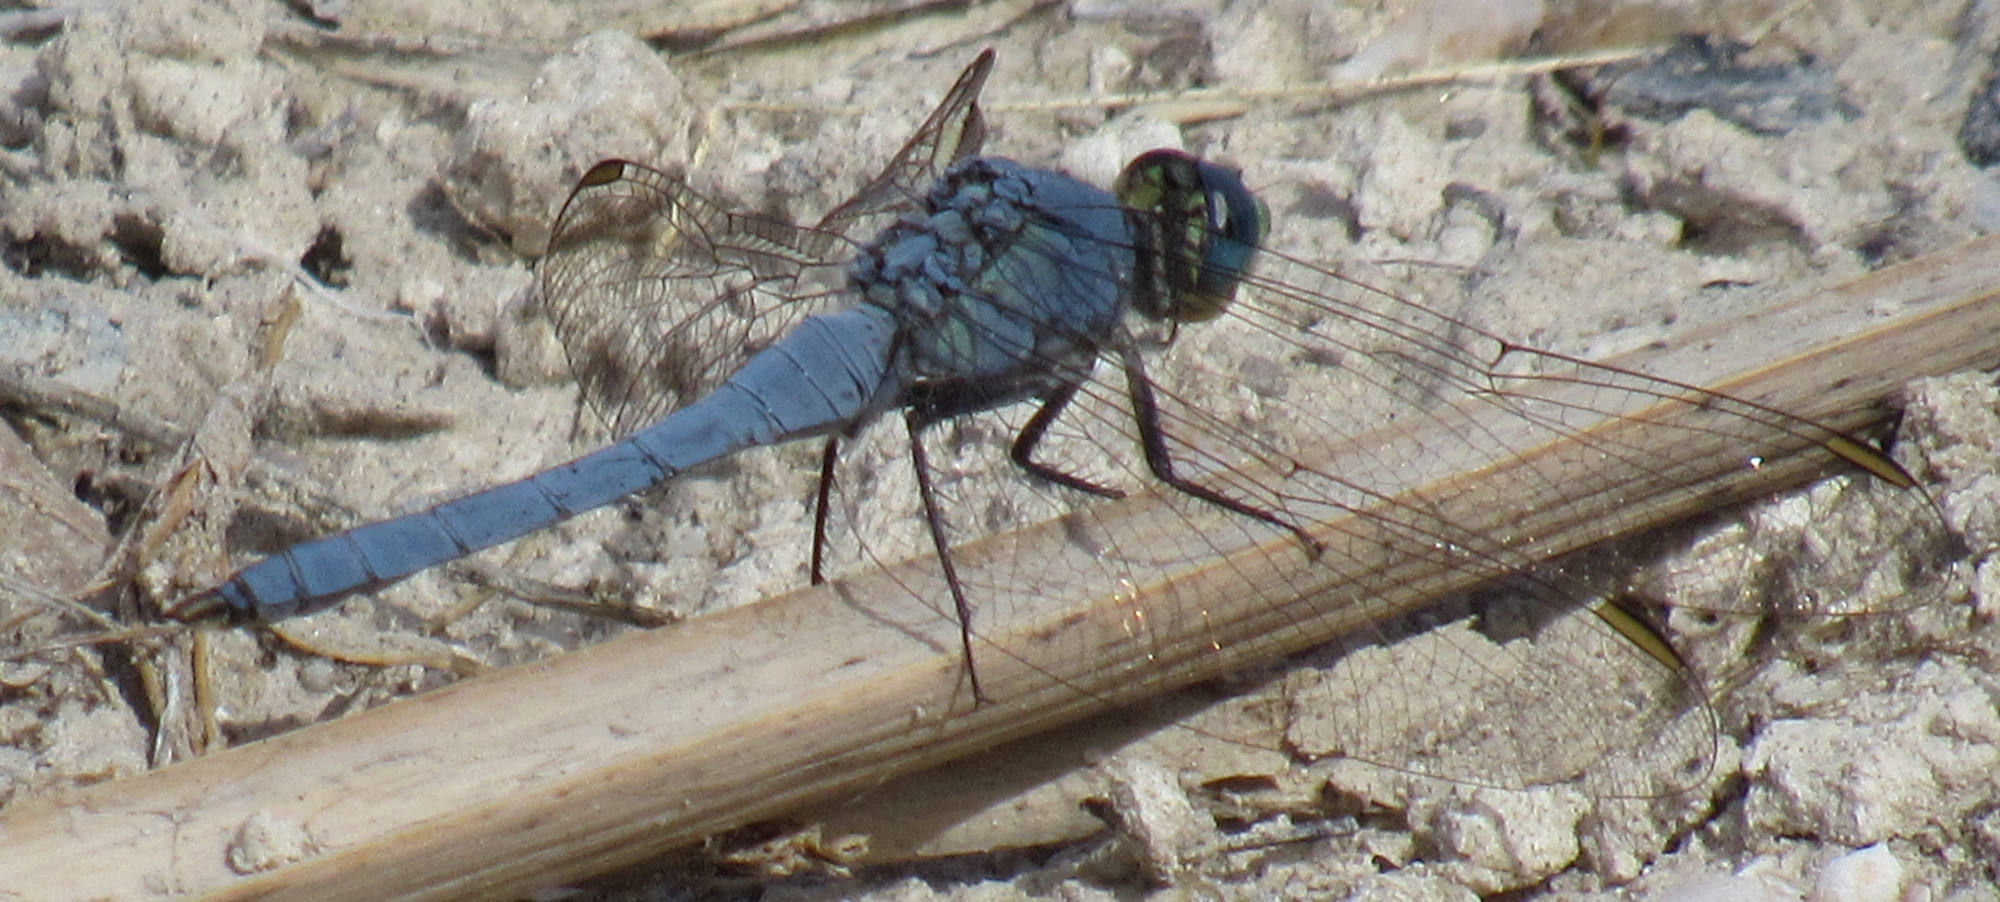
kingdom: Animalia
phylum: Arthropoda
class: Insecta
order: Odonata
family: Libellulidae
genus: Erythemis
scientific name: Erythemis collocata
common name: Western pondhawk
